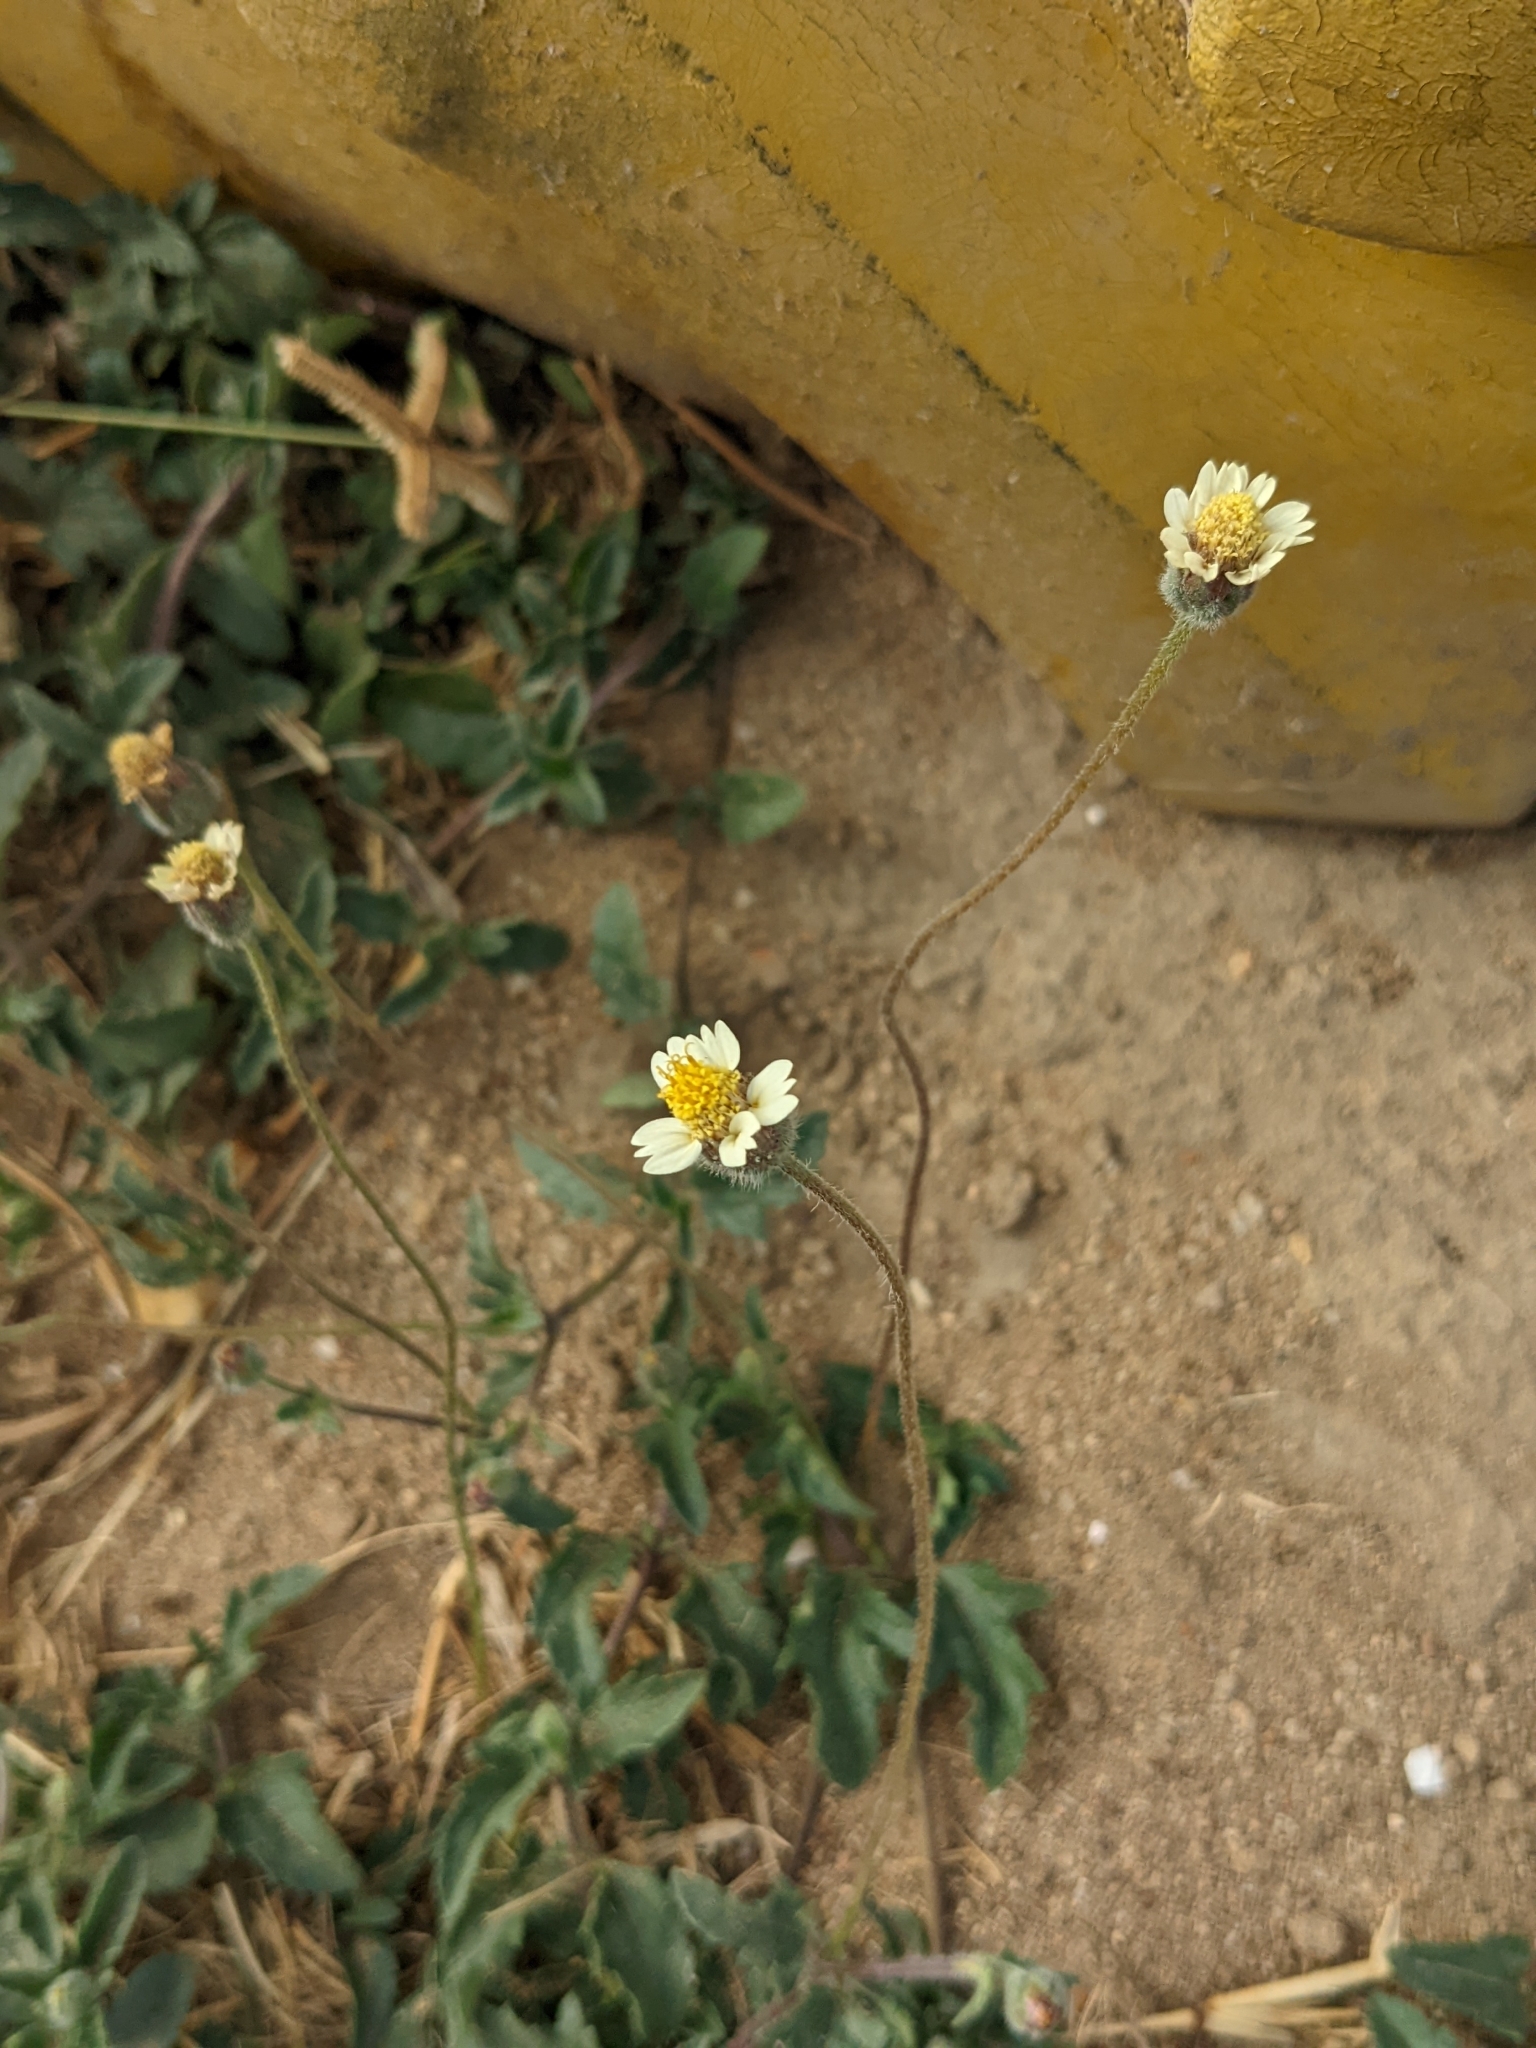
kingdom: Plantae
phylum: Tracheophyta
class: Magnoliopsida
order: Asterales
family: Asteraceae
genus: Tridax
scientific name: Tridax procumbens
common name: Coatbuttons
